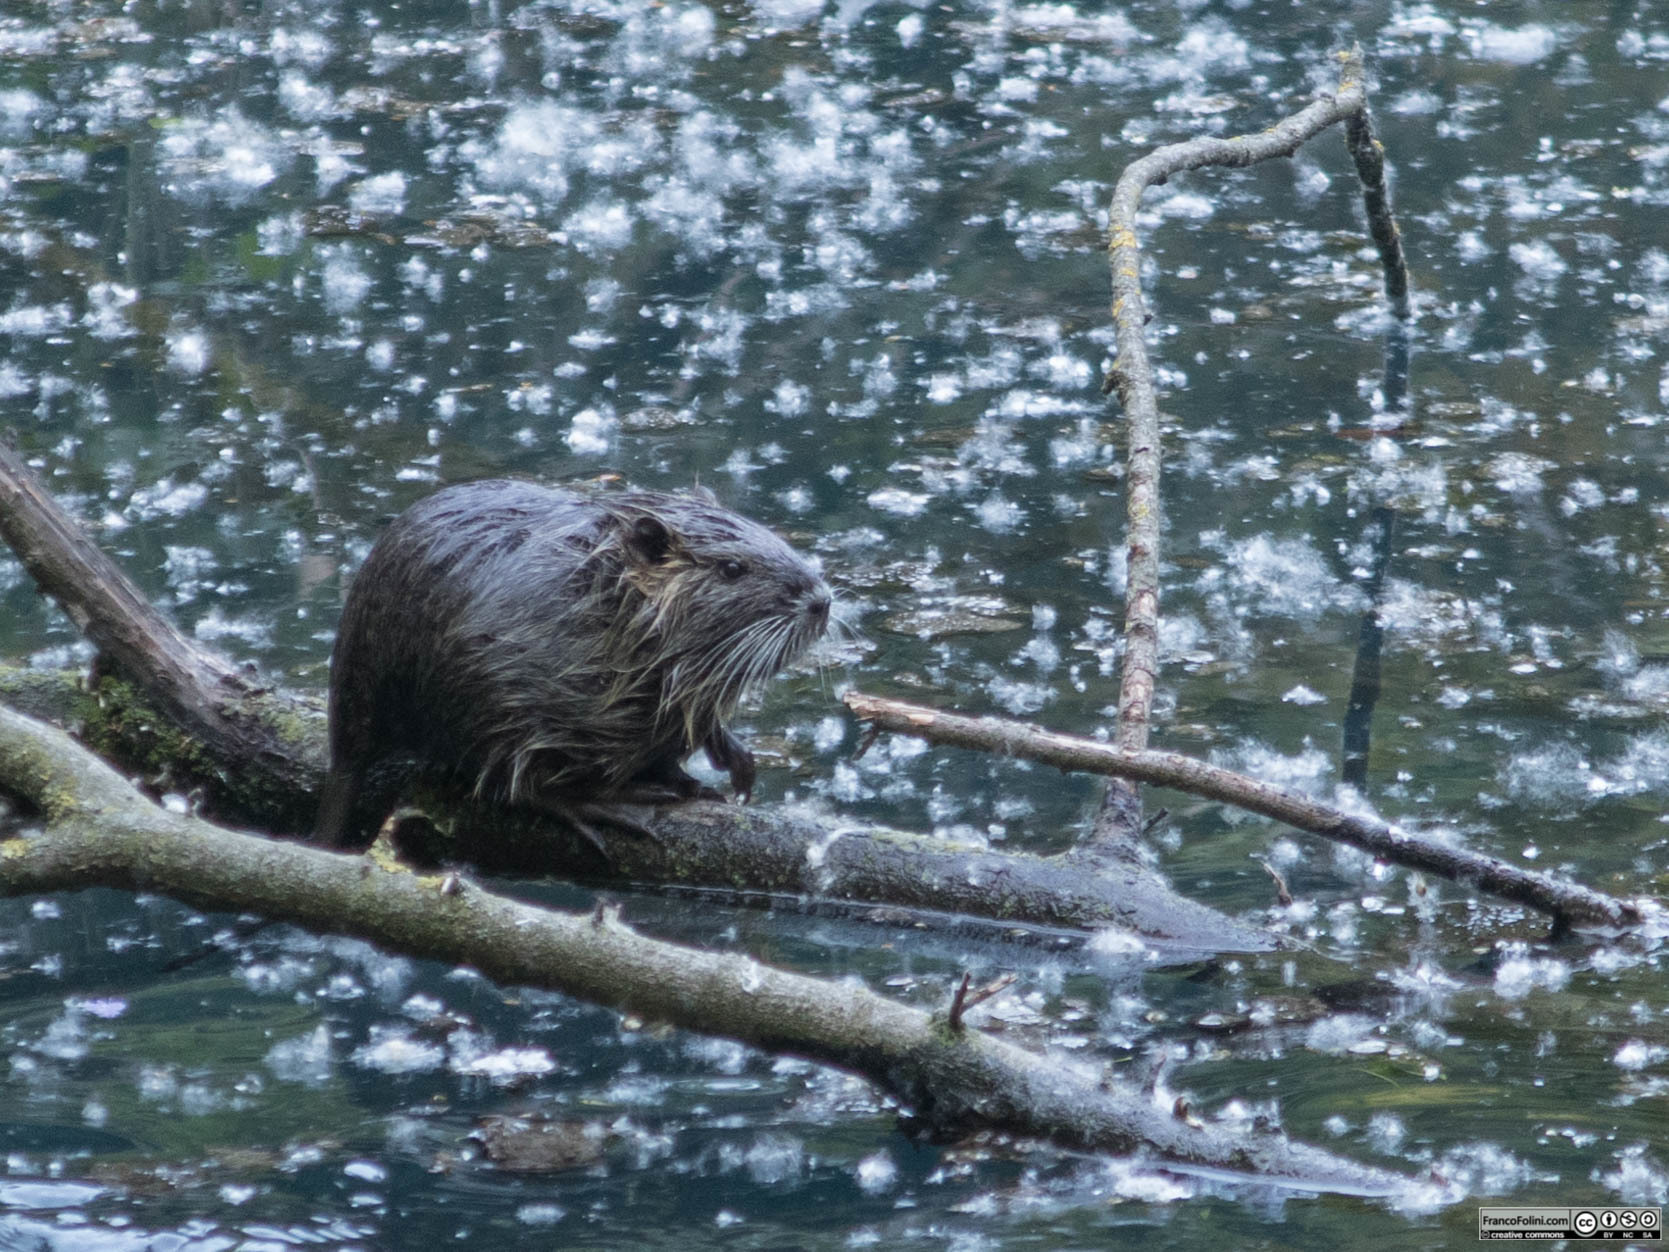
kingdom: Animalia
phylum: Chordata
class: Mammalia
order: Rodentia
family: Myocastoridae
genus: Myocastor
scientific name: Myocastor coypus
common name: Coypu
